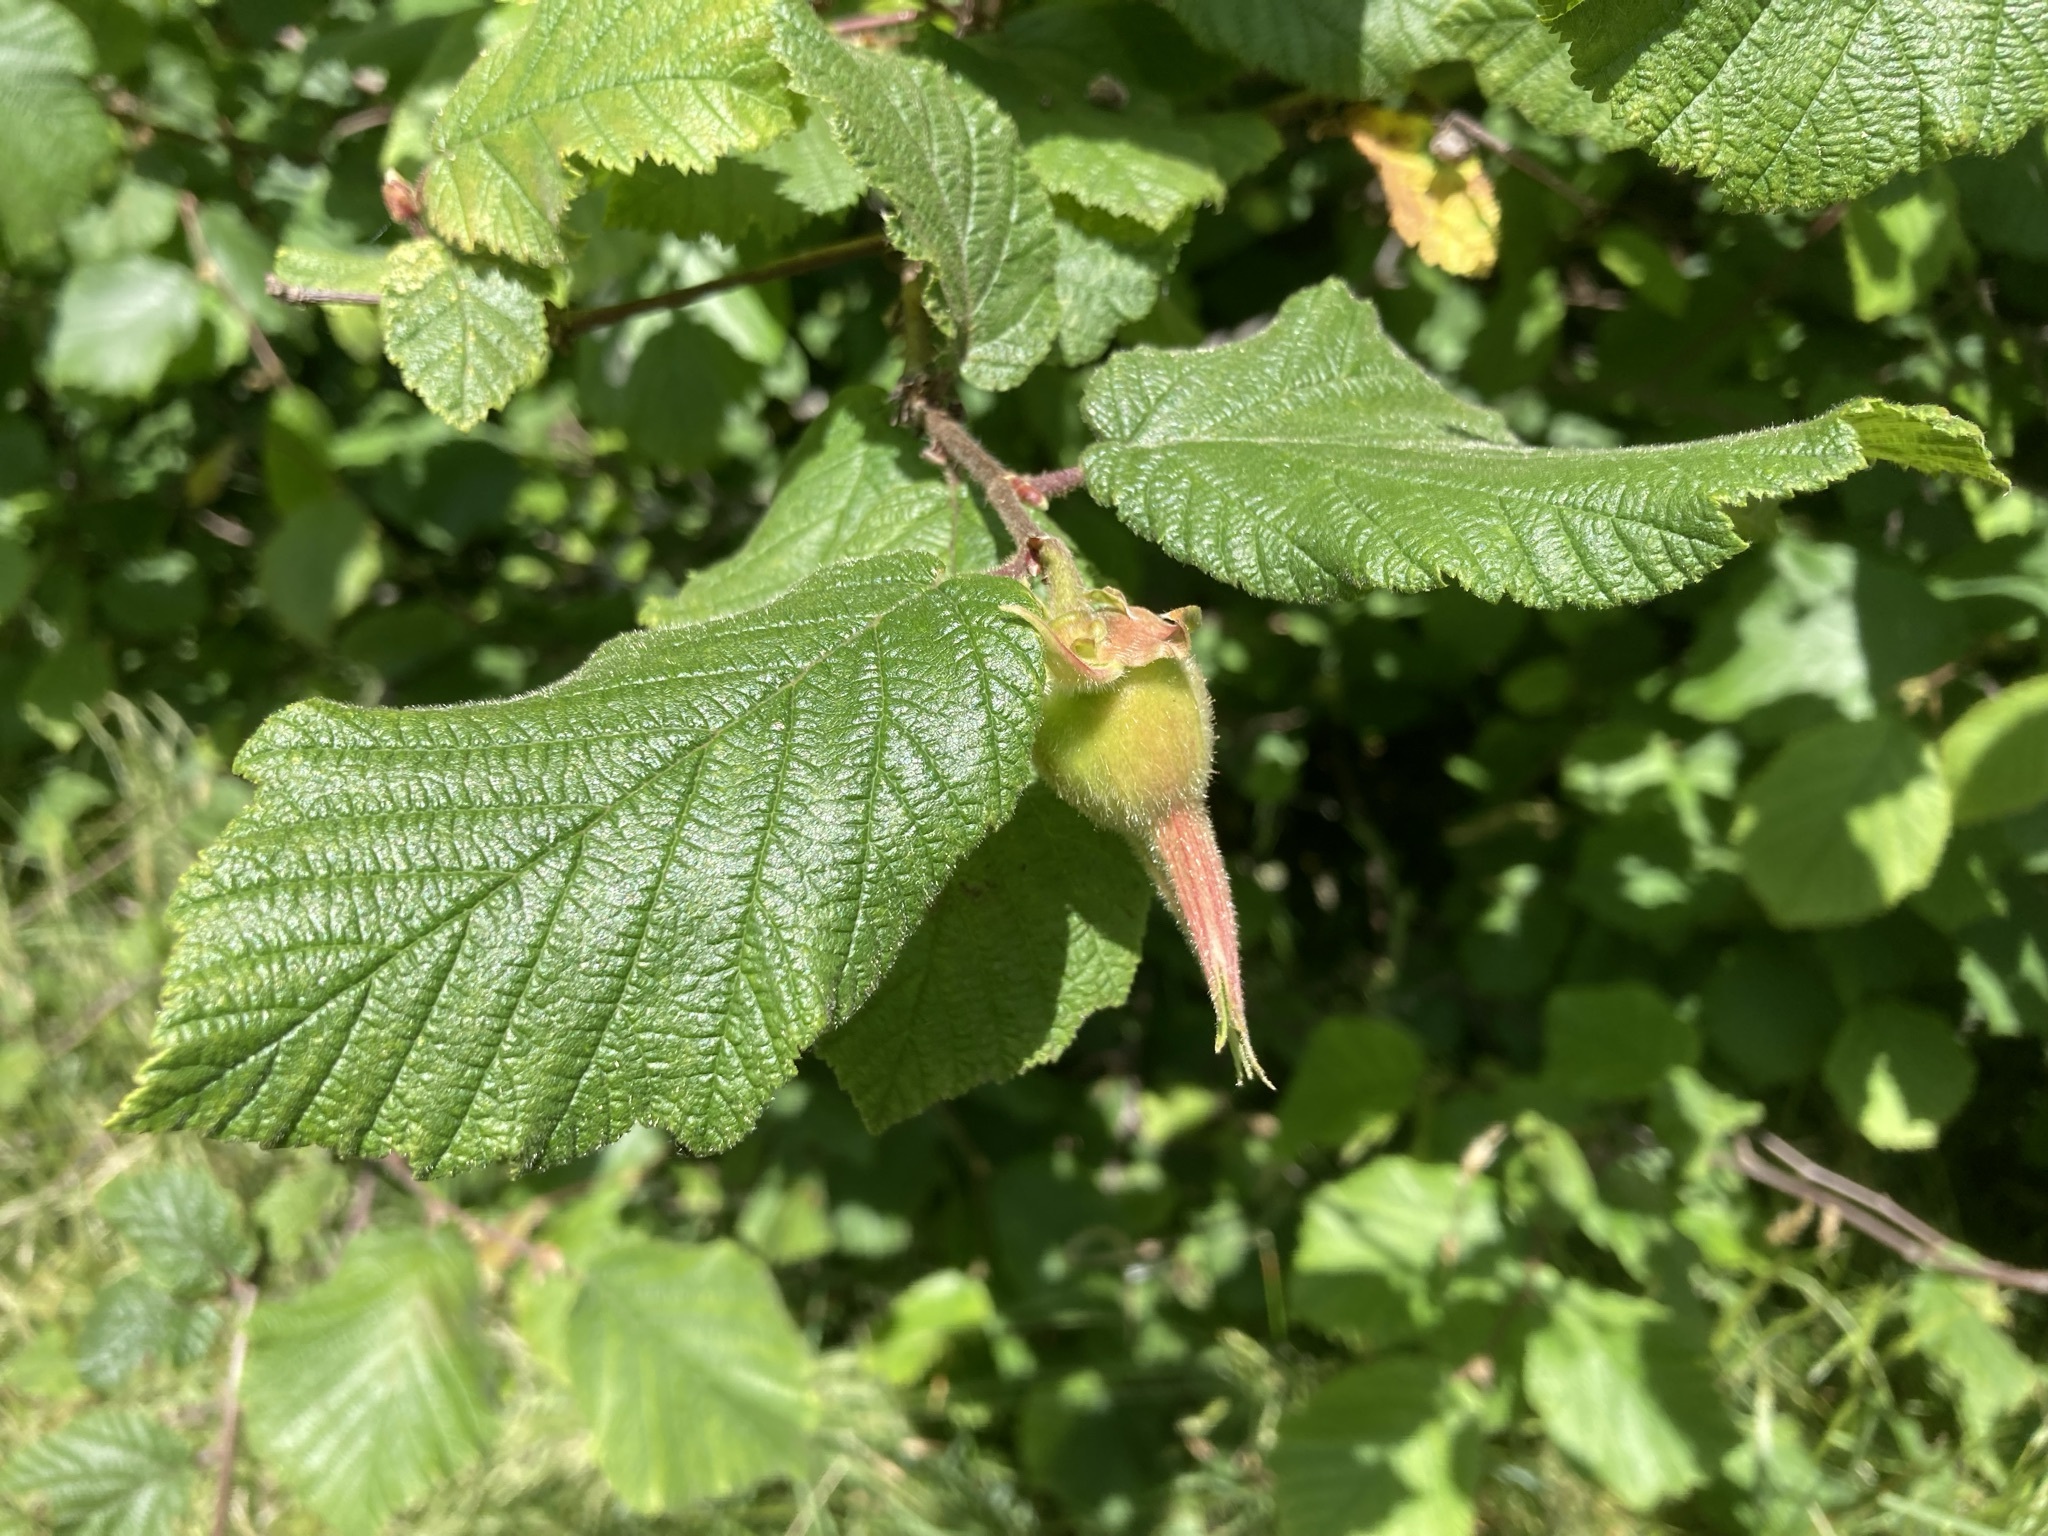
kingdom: Plantae
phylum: Tracheophyta
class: Magnoliopsida
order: Fagales
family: Betulaceae
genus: Corylus
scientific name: Corylus cornuta
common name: Beaked hazel
